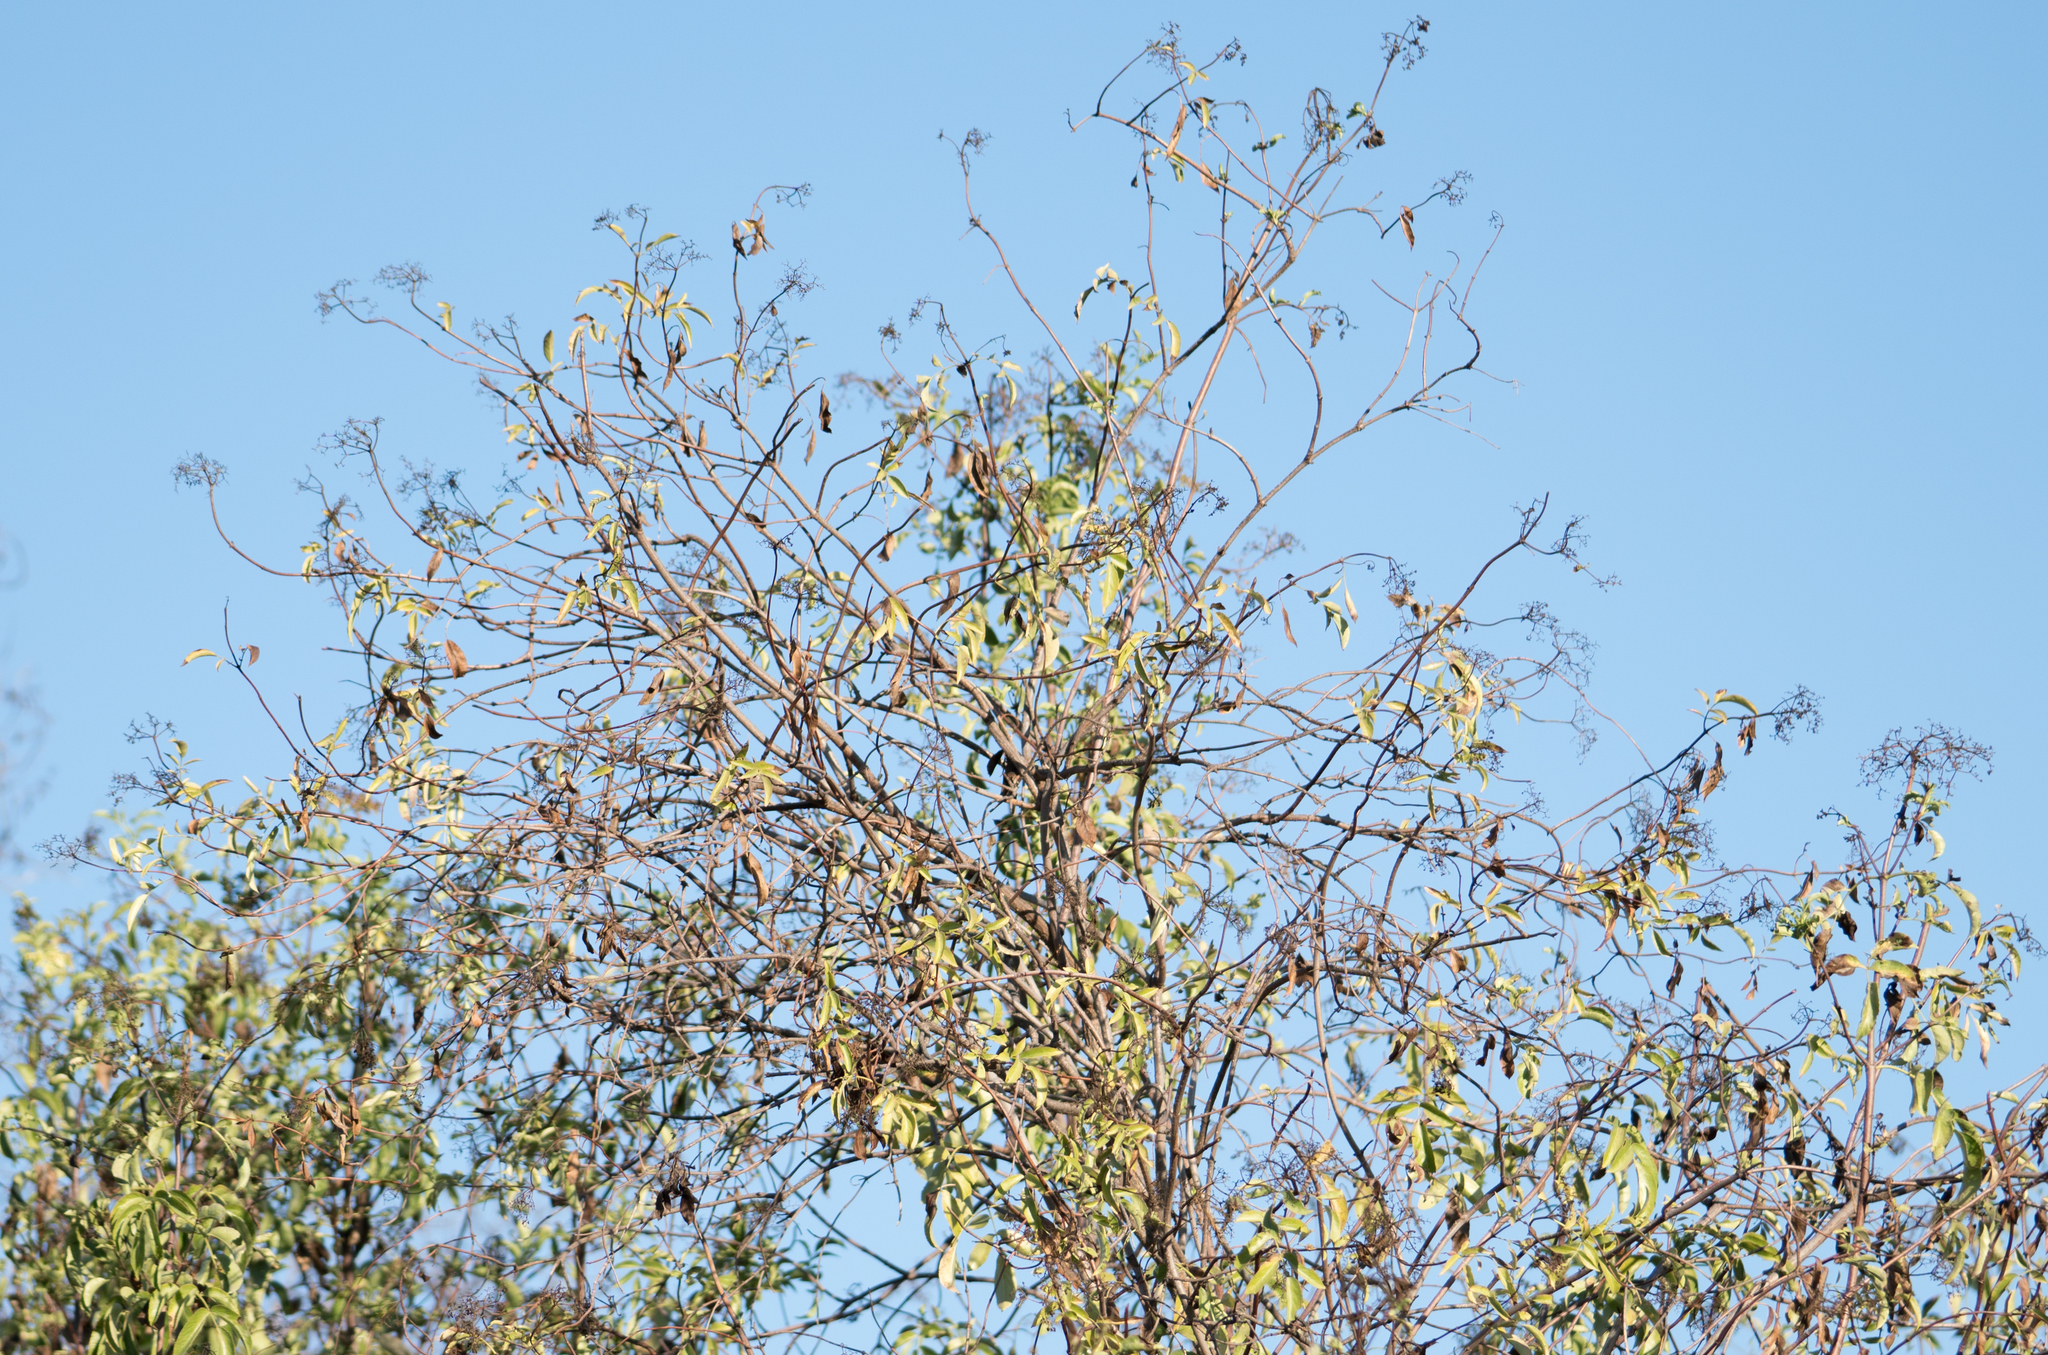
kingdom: Plantae
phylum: Tracheophyta
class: Magnoliopsida
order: Dipsacales
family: Viburnaceae
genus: Sambucus
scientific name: Sambucus cerulea
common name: Blue elder
